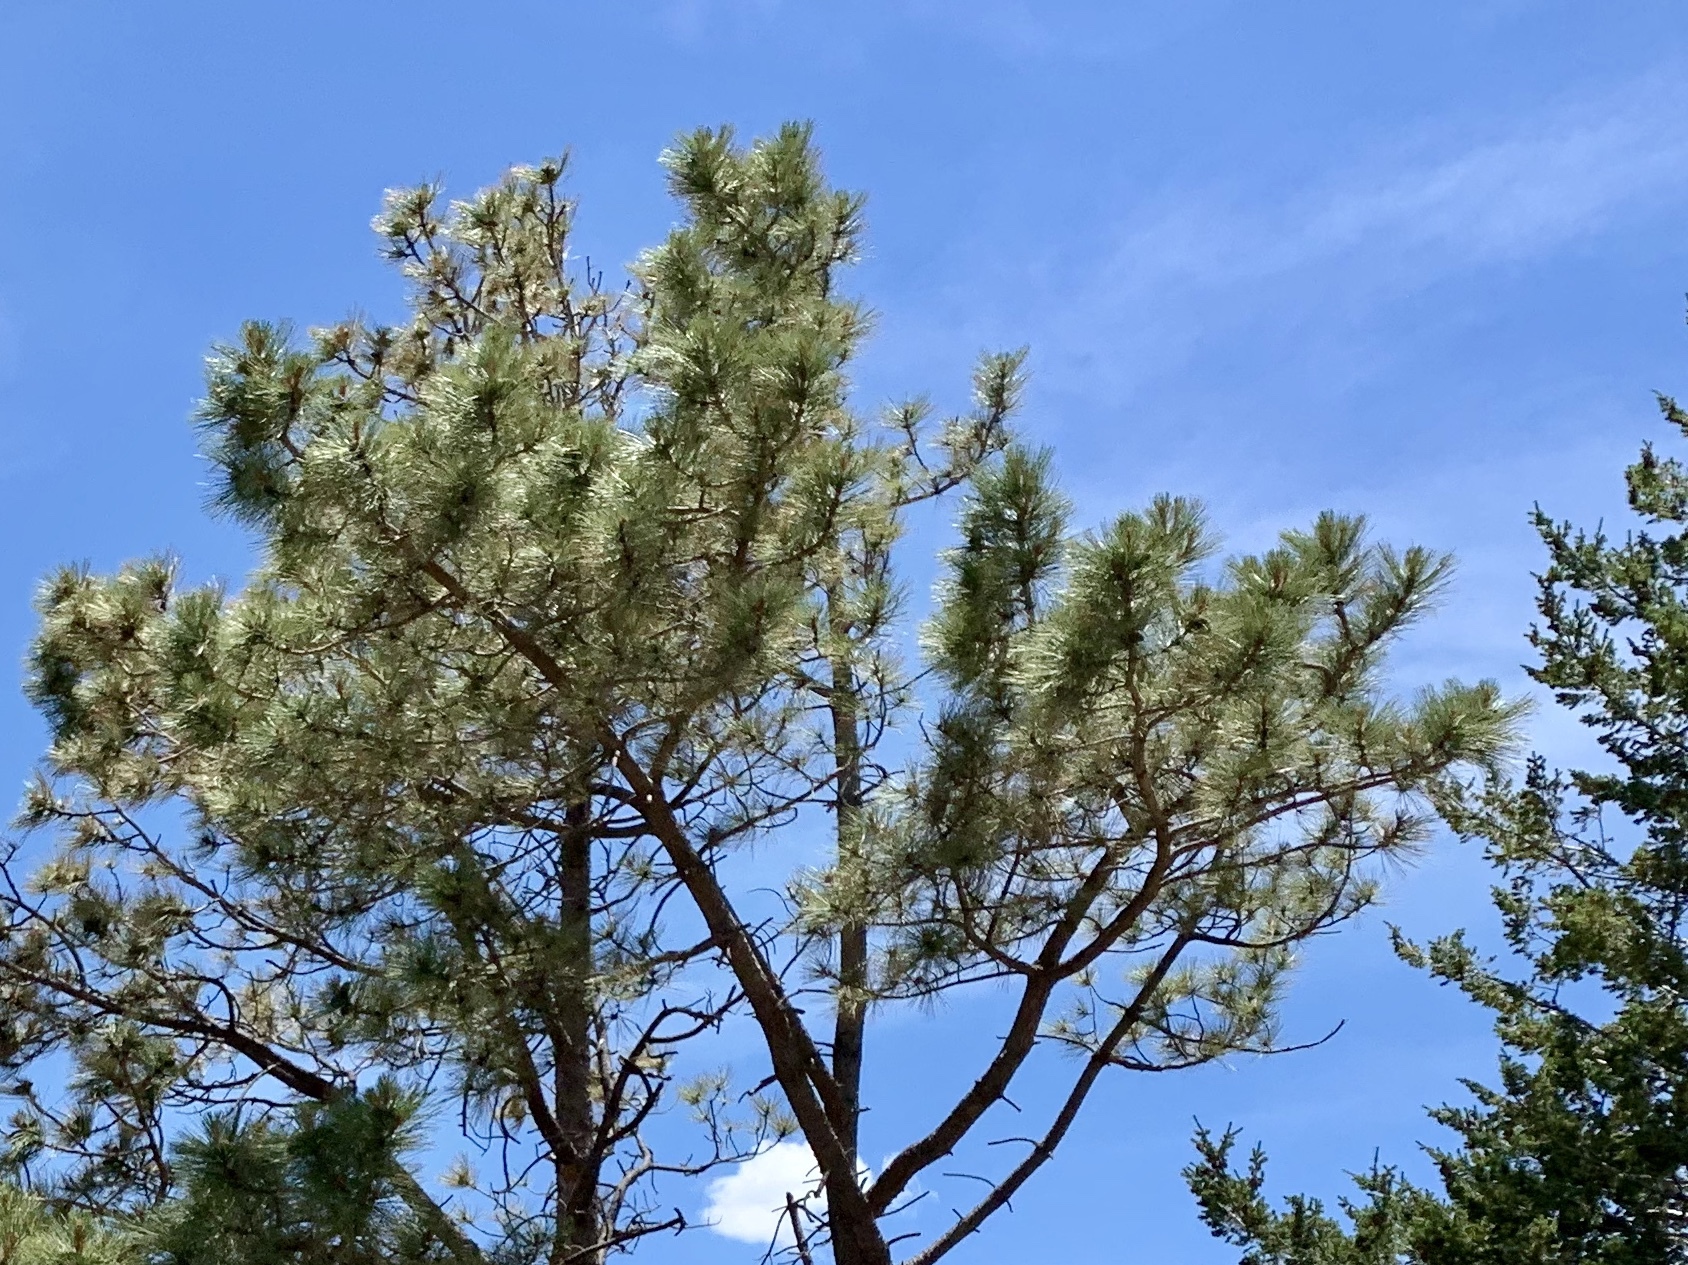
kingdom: Plantae
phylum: Tracheophyta
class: Pinopsida
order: Pinales
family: Pinaceae
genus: Pinus
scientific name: Pinus ponderosa
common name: Western yellow-pine
